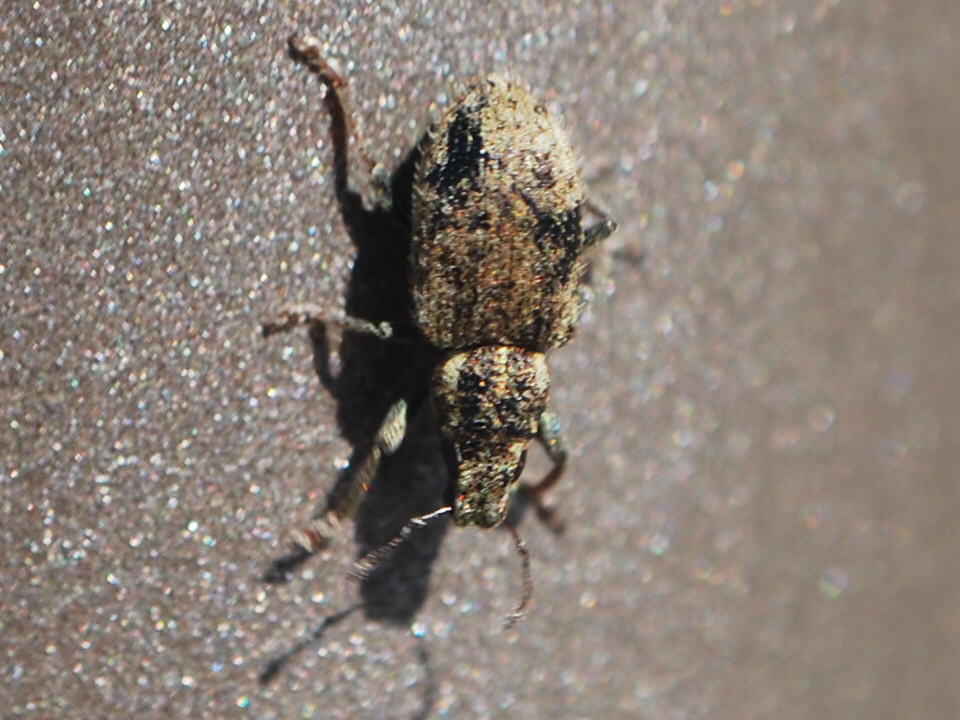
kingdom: Animalia
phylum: Arthropoda
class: Insecta
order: Coleoptera
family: Curculionidae
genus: Sitona
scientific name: Sitona hispidulus
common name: Clover weevil
